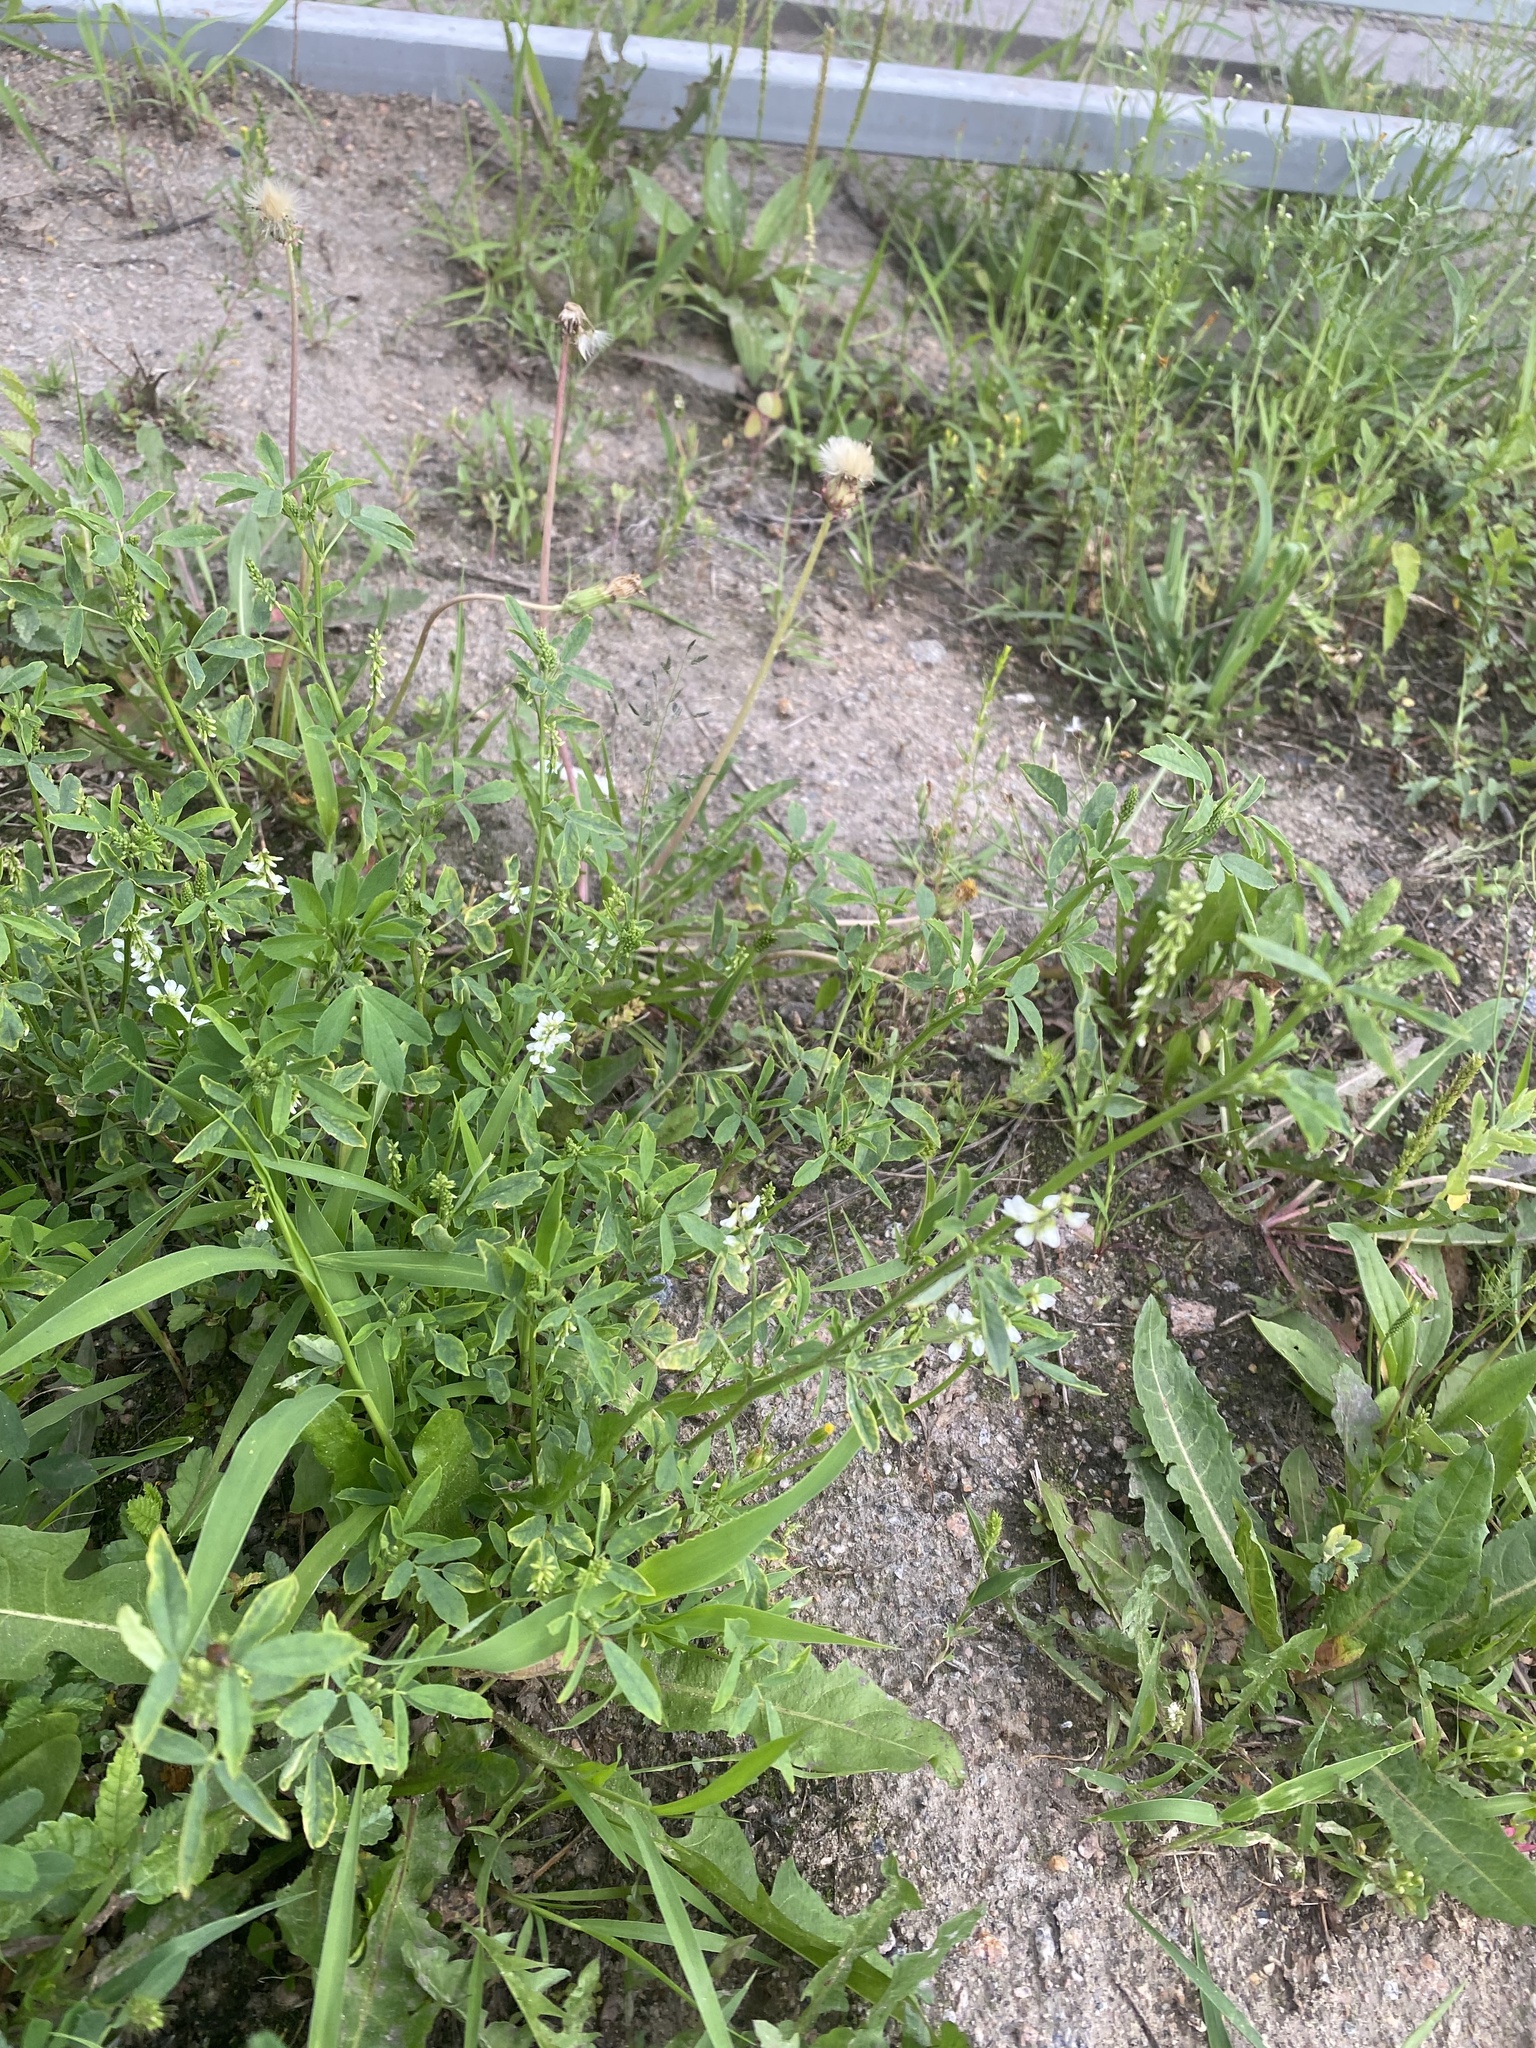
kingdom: Plantae
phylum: Tracheophyta
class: Magnoliopsida
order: Fabales
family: Fabaceae
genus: Melilotus
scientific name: Melilotus albus
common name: White melilot
